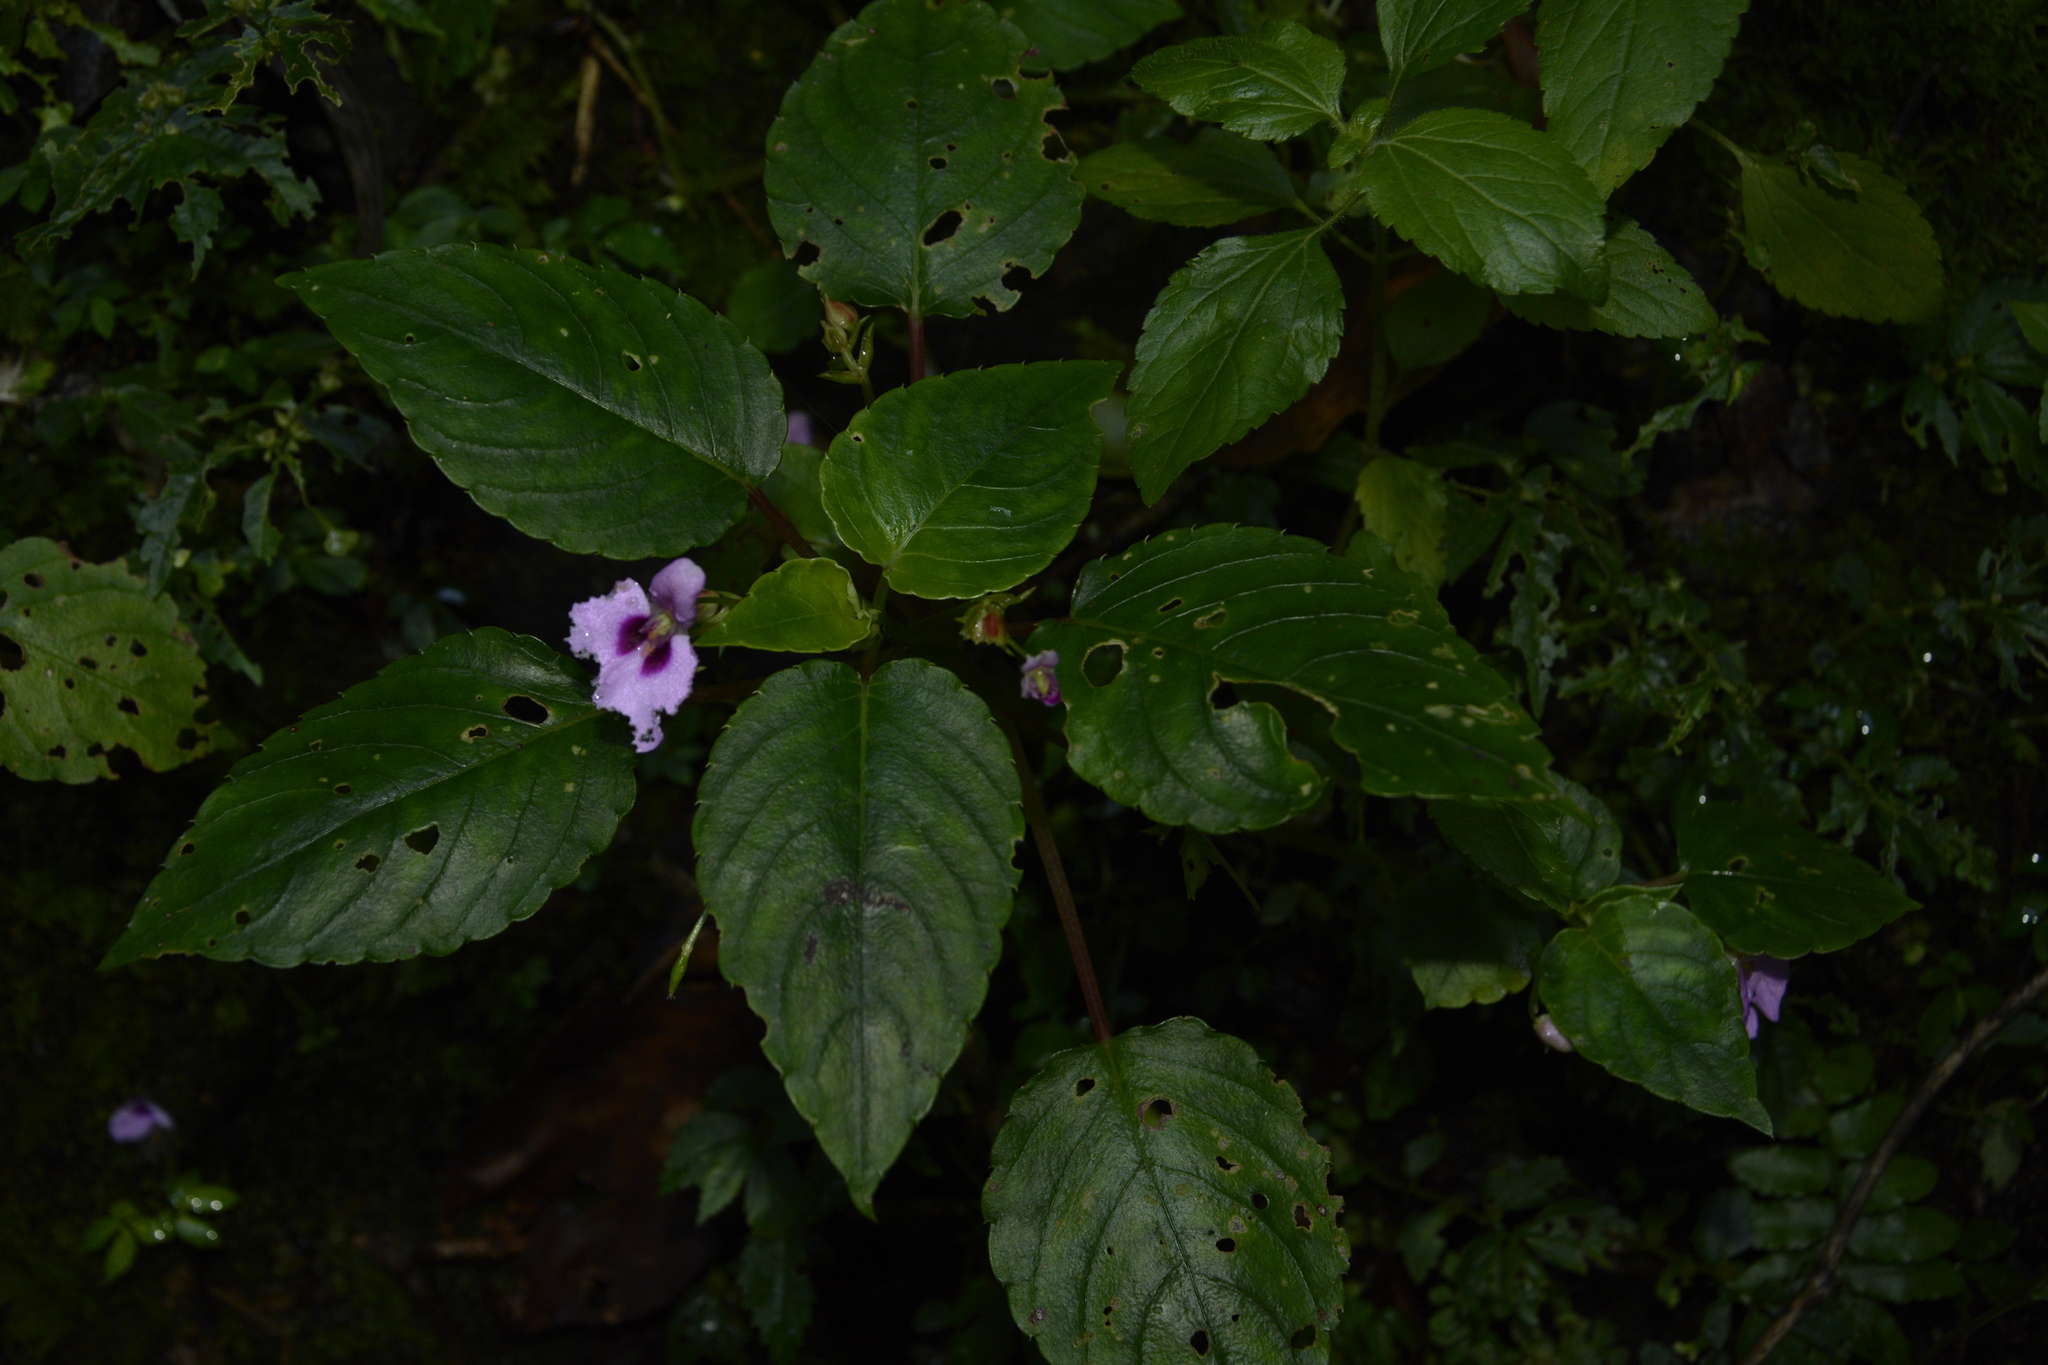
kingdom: Plantae
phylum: Tracheophyta
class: Magnoliopsida
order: Ericales
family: Balsaminaceae
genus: Impatiens
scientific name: Impatiens elegans
